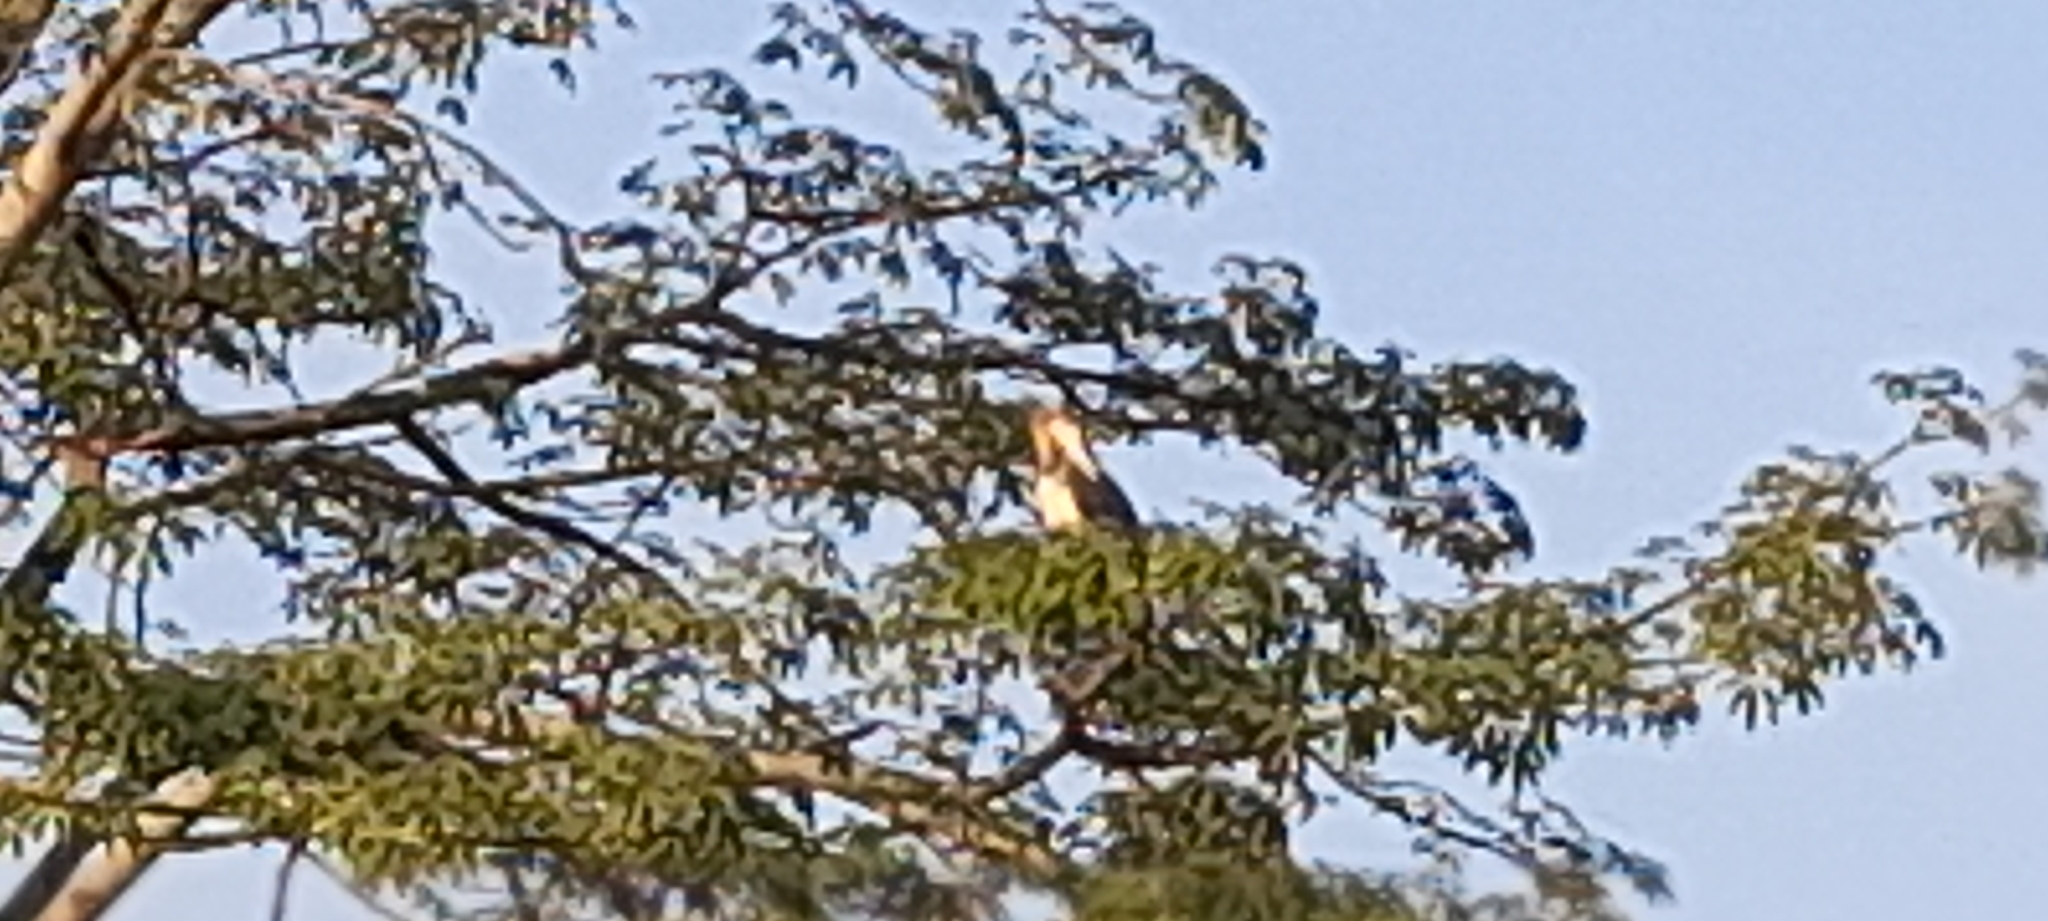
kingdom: Animalia
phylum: Chordata
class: Aves
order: Ciconiiformes
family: Ciconiidae
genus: Leptoptilos
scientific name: Leptoptilos javanicus
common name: Lesser adjutant
